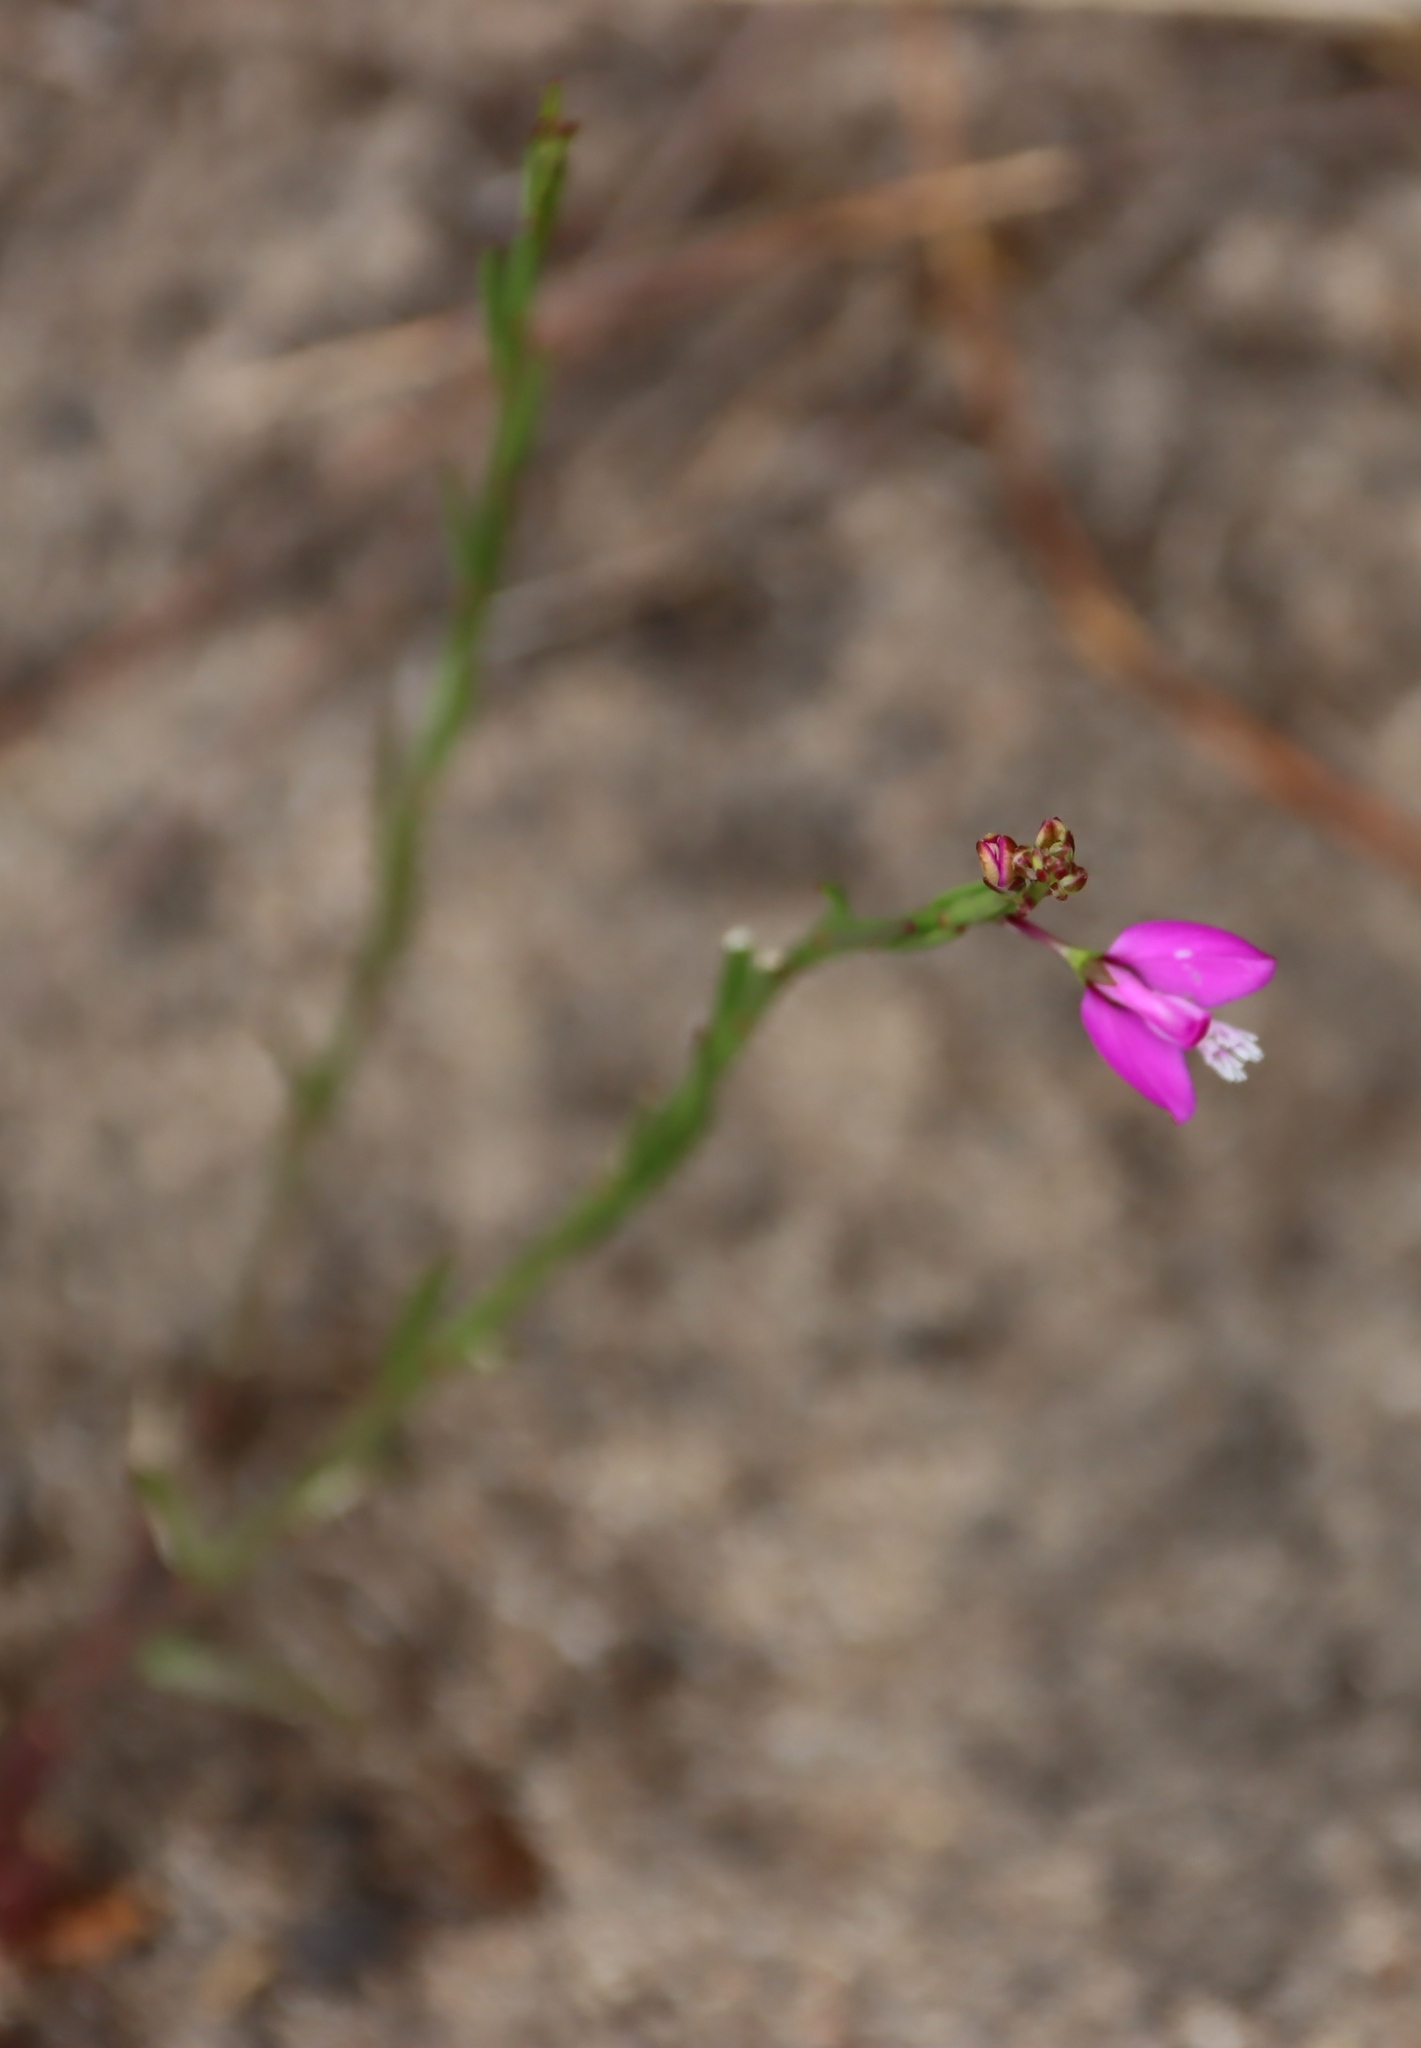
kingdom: Plantae
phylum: Tracheophyta
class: Magnoliopsida
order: Fabales
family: Polygalaceae
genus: Polygala
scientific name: Polygala garcini
